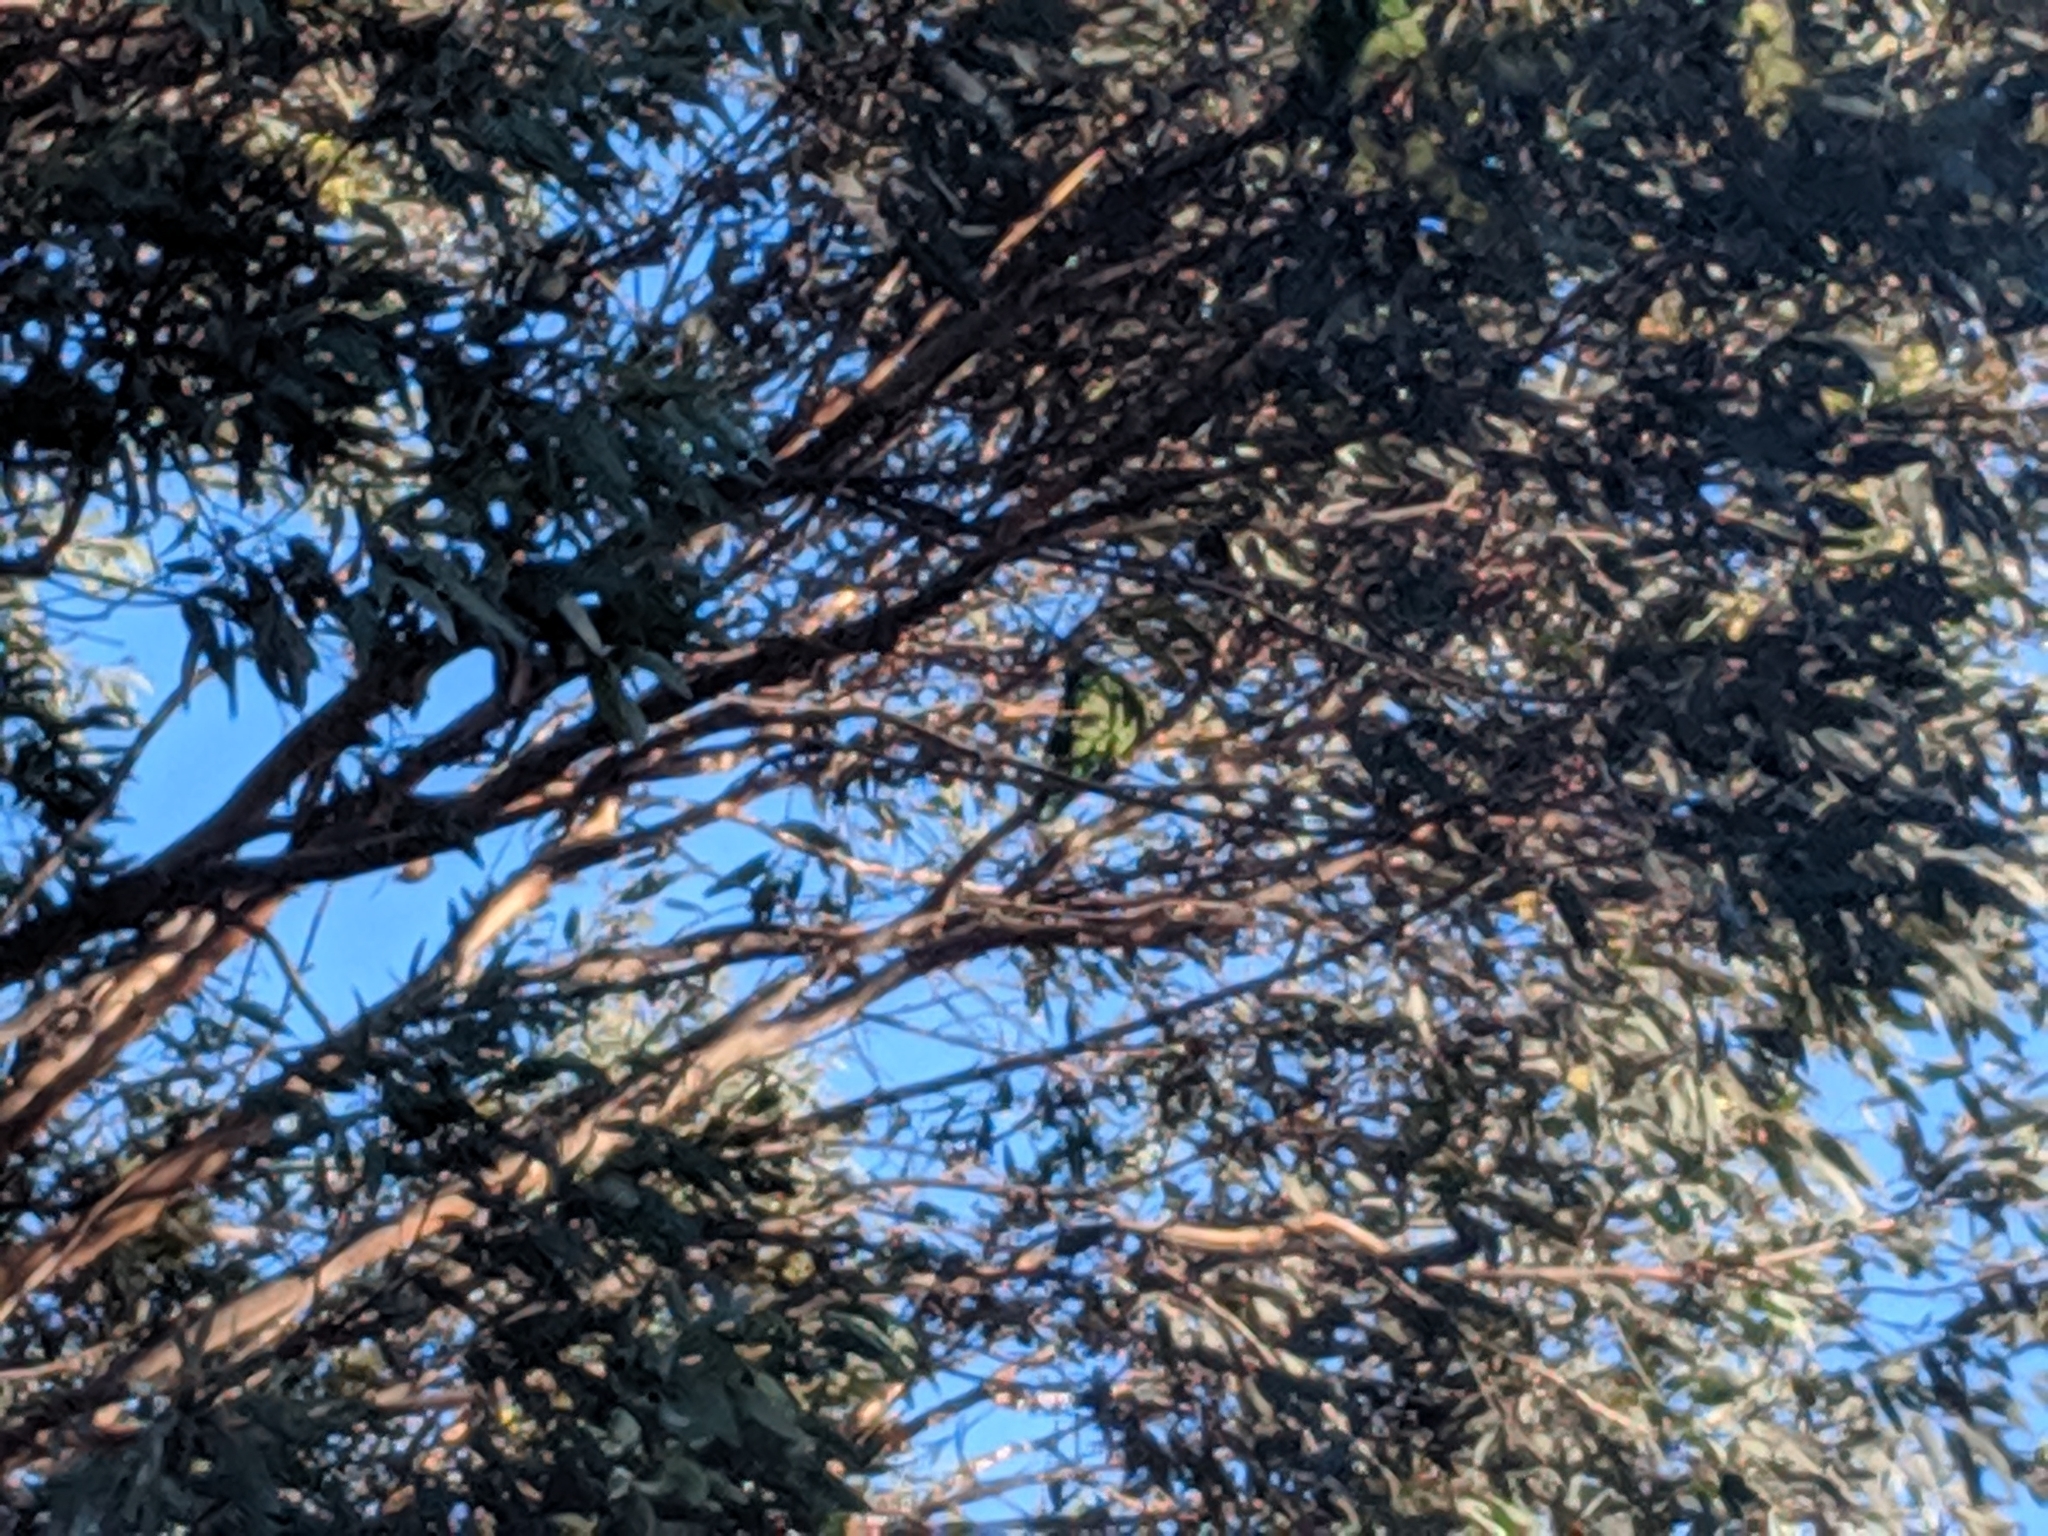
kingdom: Animalia
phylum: Chordata
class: Aves
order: Psittaciformes
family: Psittacidae
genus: Trichoglossus
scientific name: Trichoglossus haematodus
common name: Coconut lorikeet
